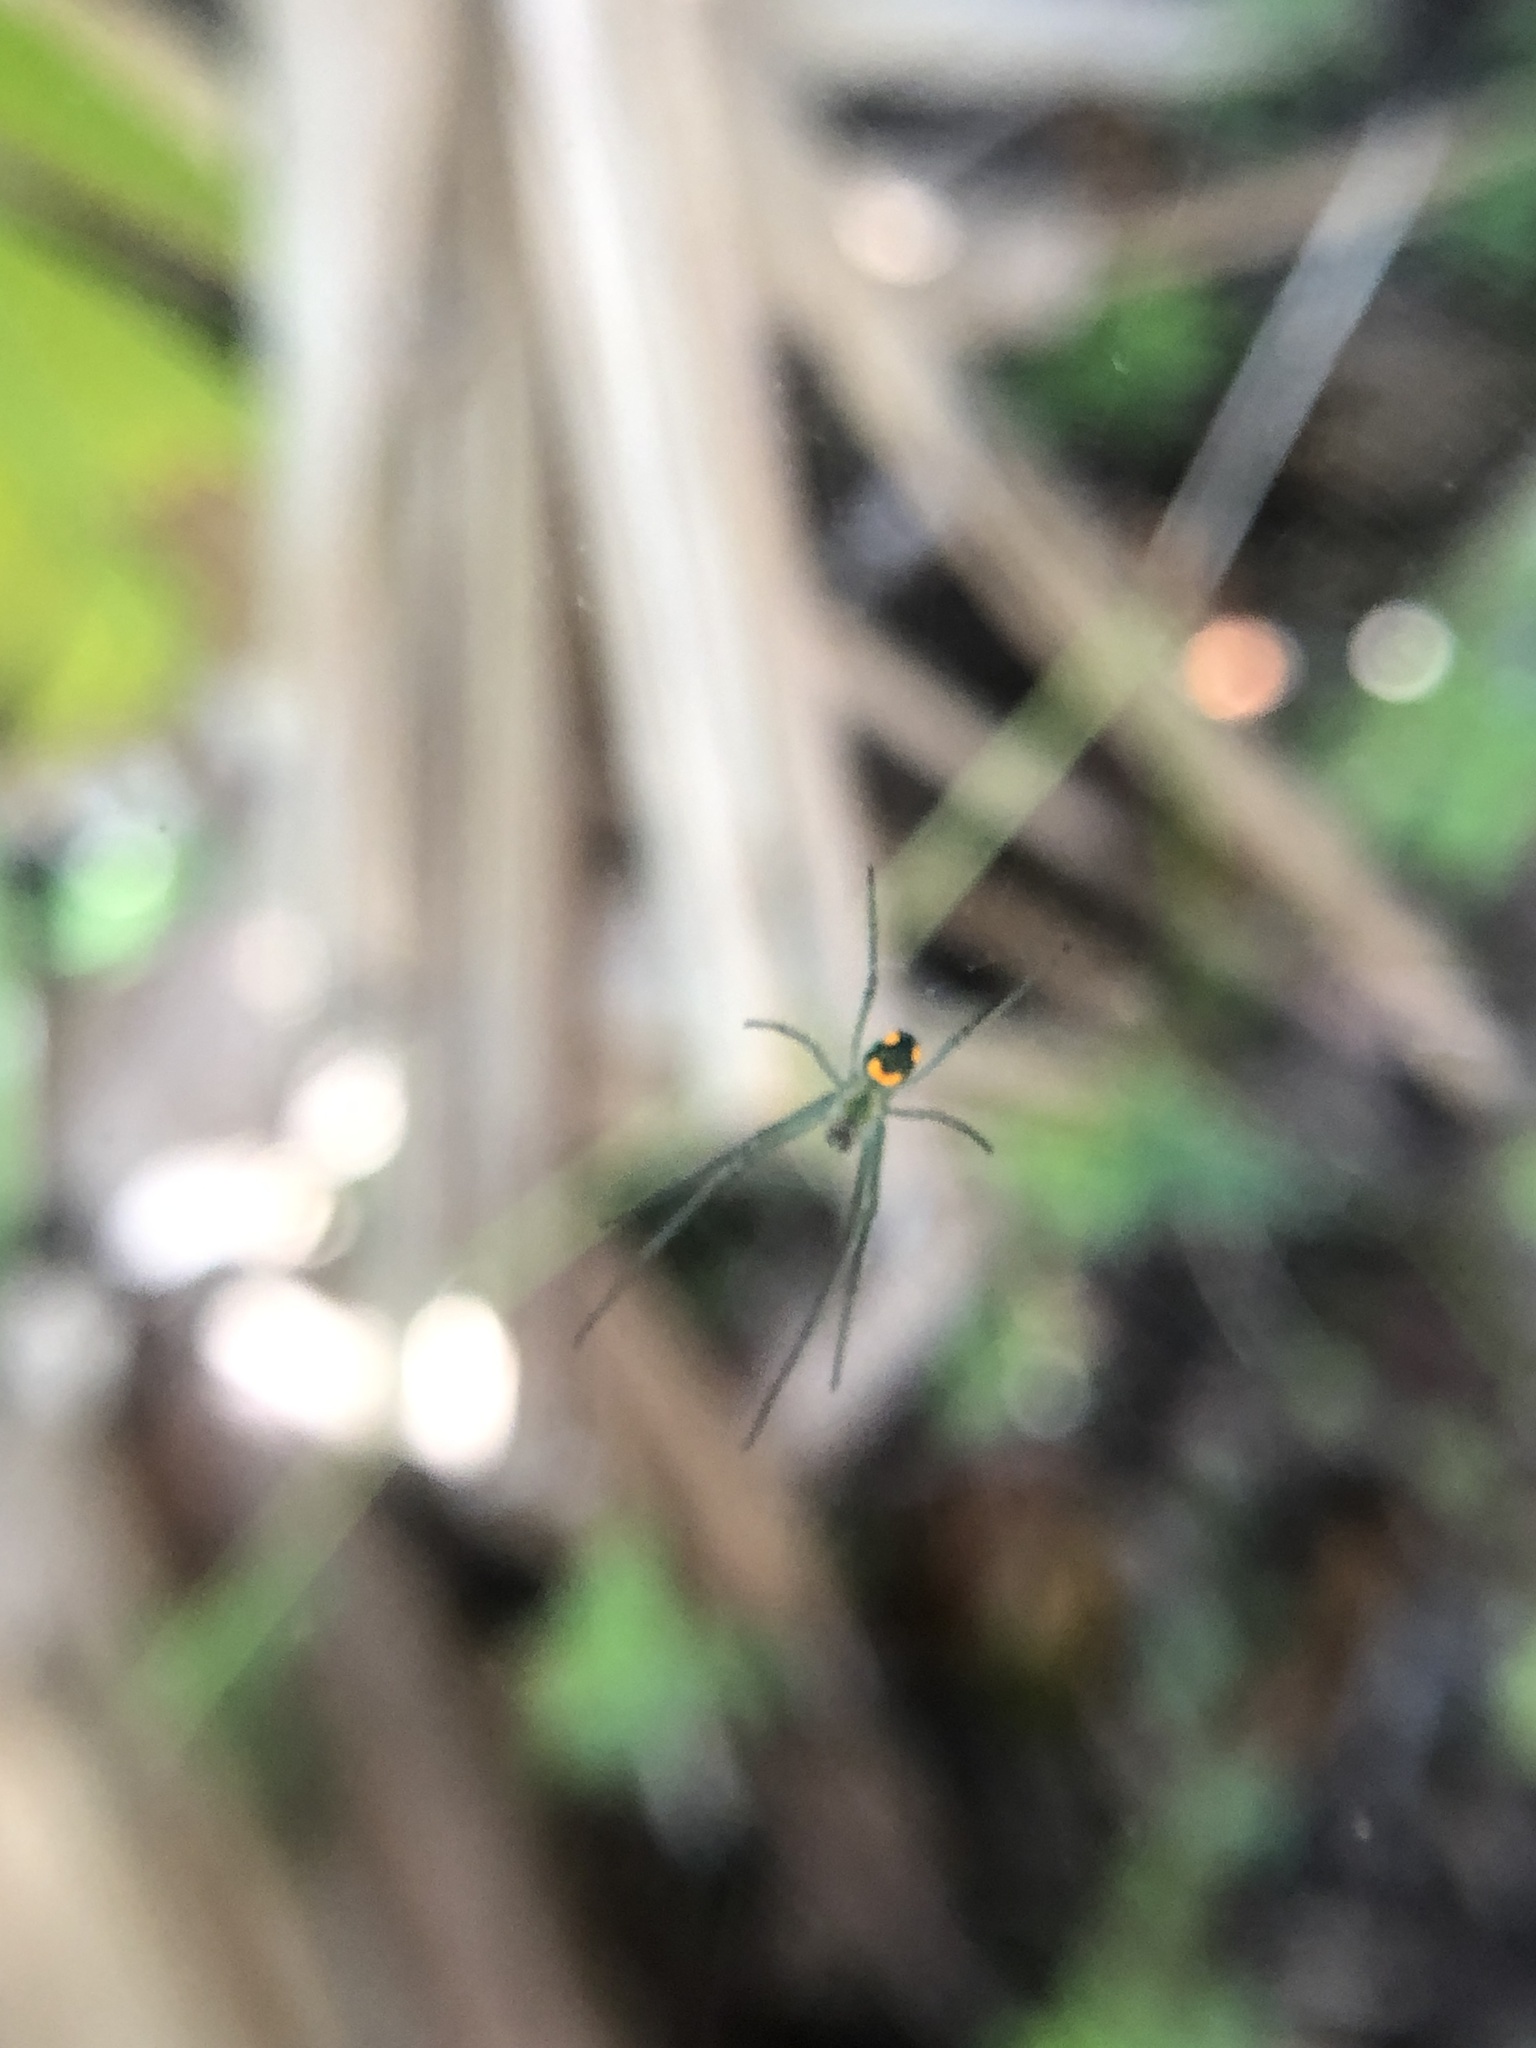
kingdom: Animalia
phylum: Arthropoda
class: Arachnida
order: Araneae
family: Tetragnathidae
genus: Leucauge
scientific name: Leucauge argyrobapta
